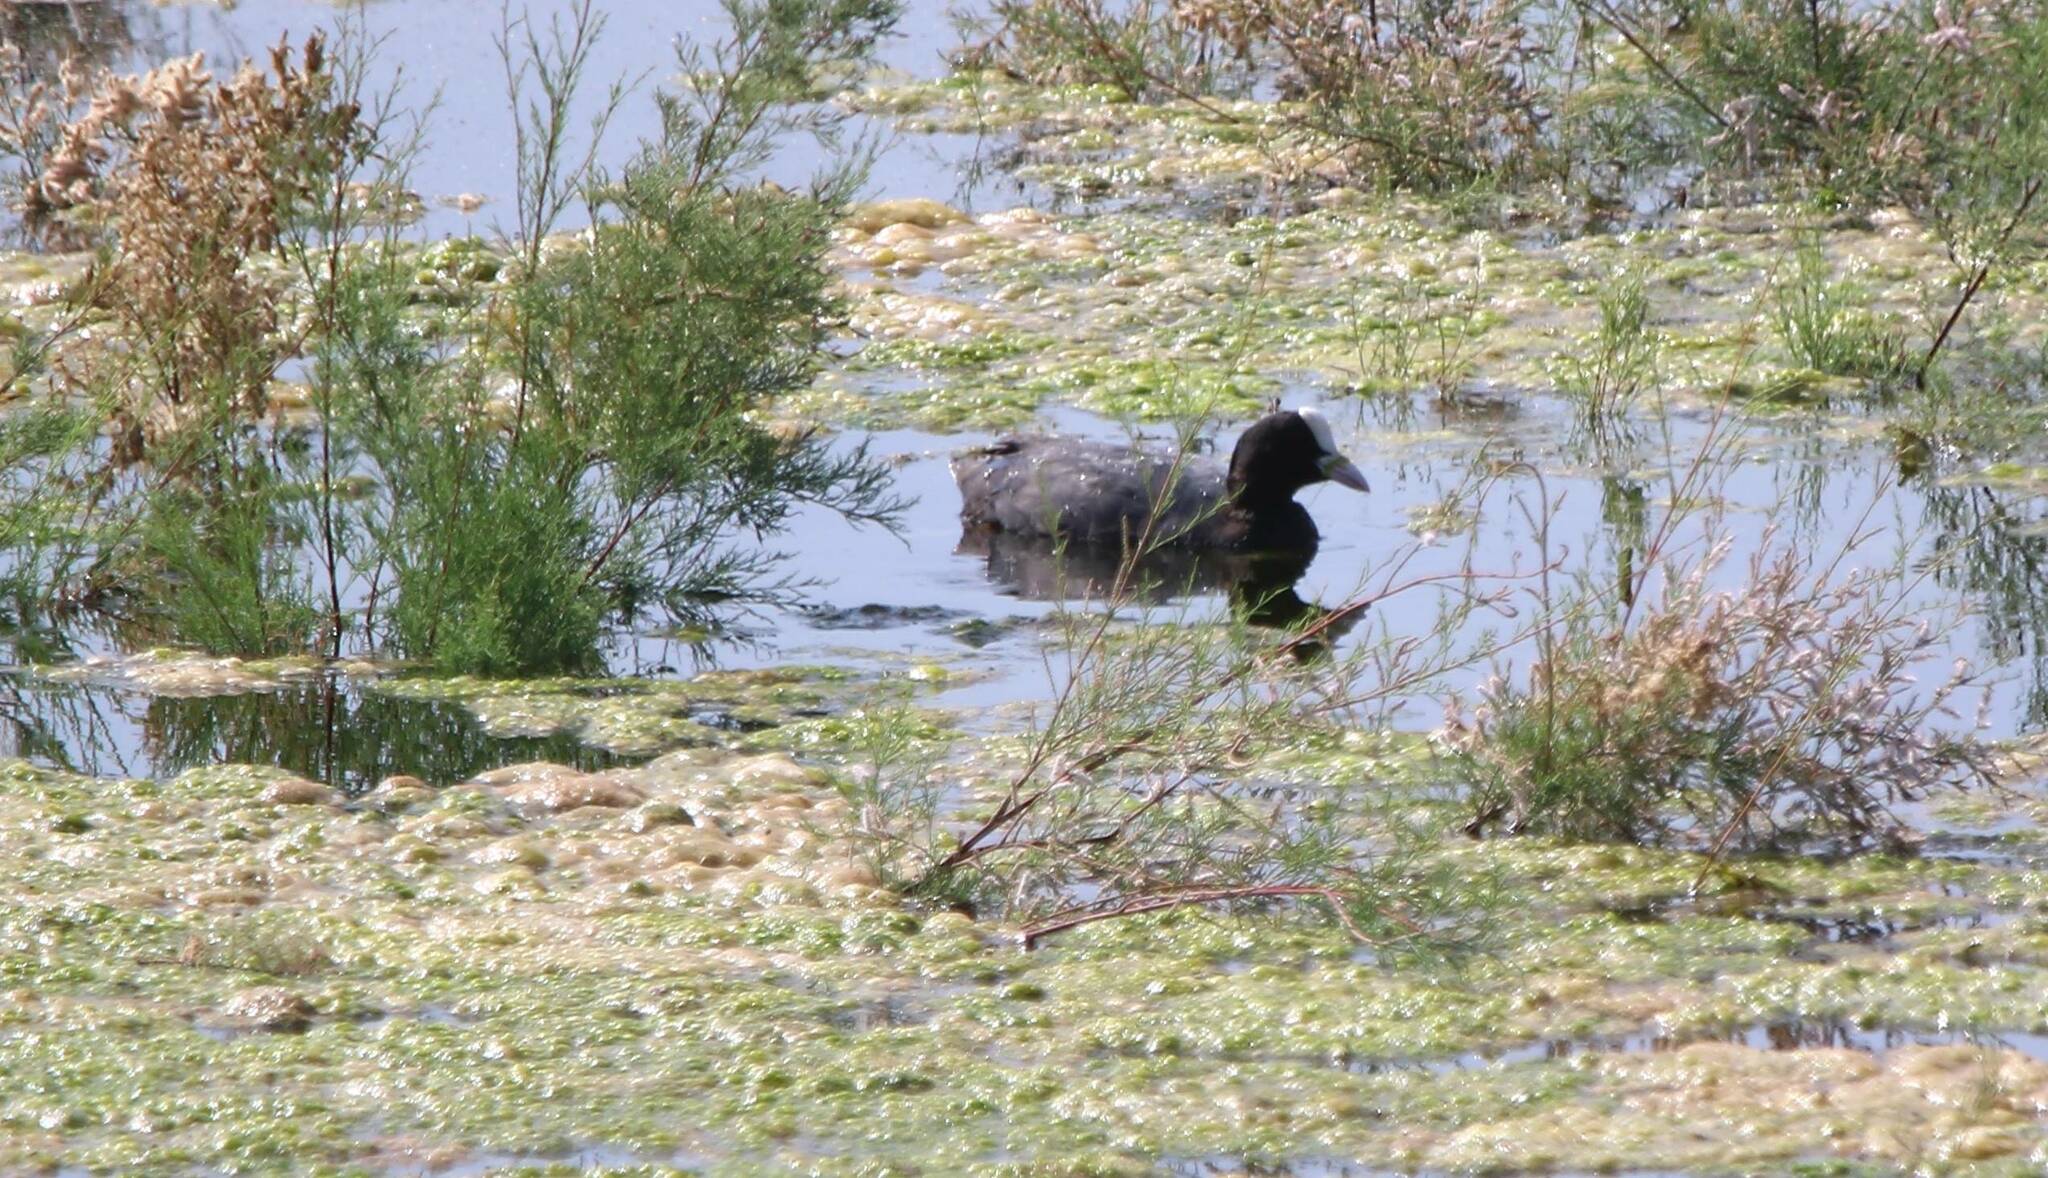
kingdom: Animalia
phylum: Chordata
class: Aves
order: Gruiformes
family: Rallidae
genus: Fulica
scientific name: Fulica atra
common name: Eurasian coot
